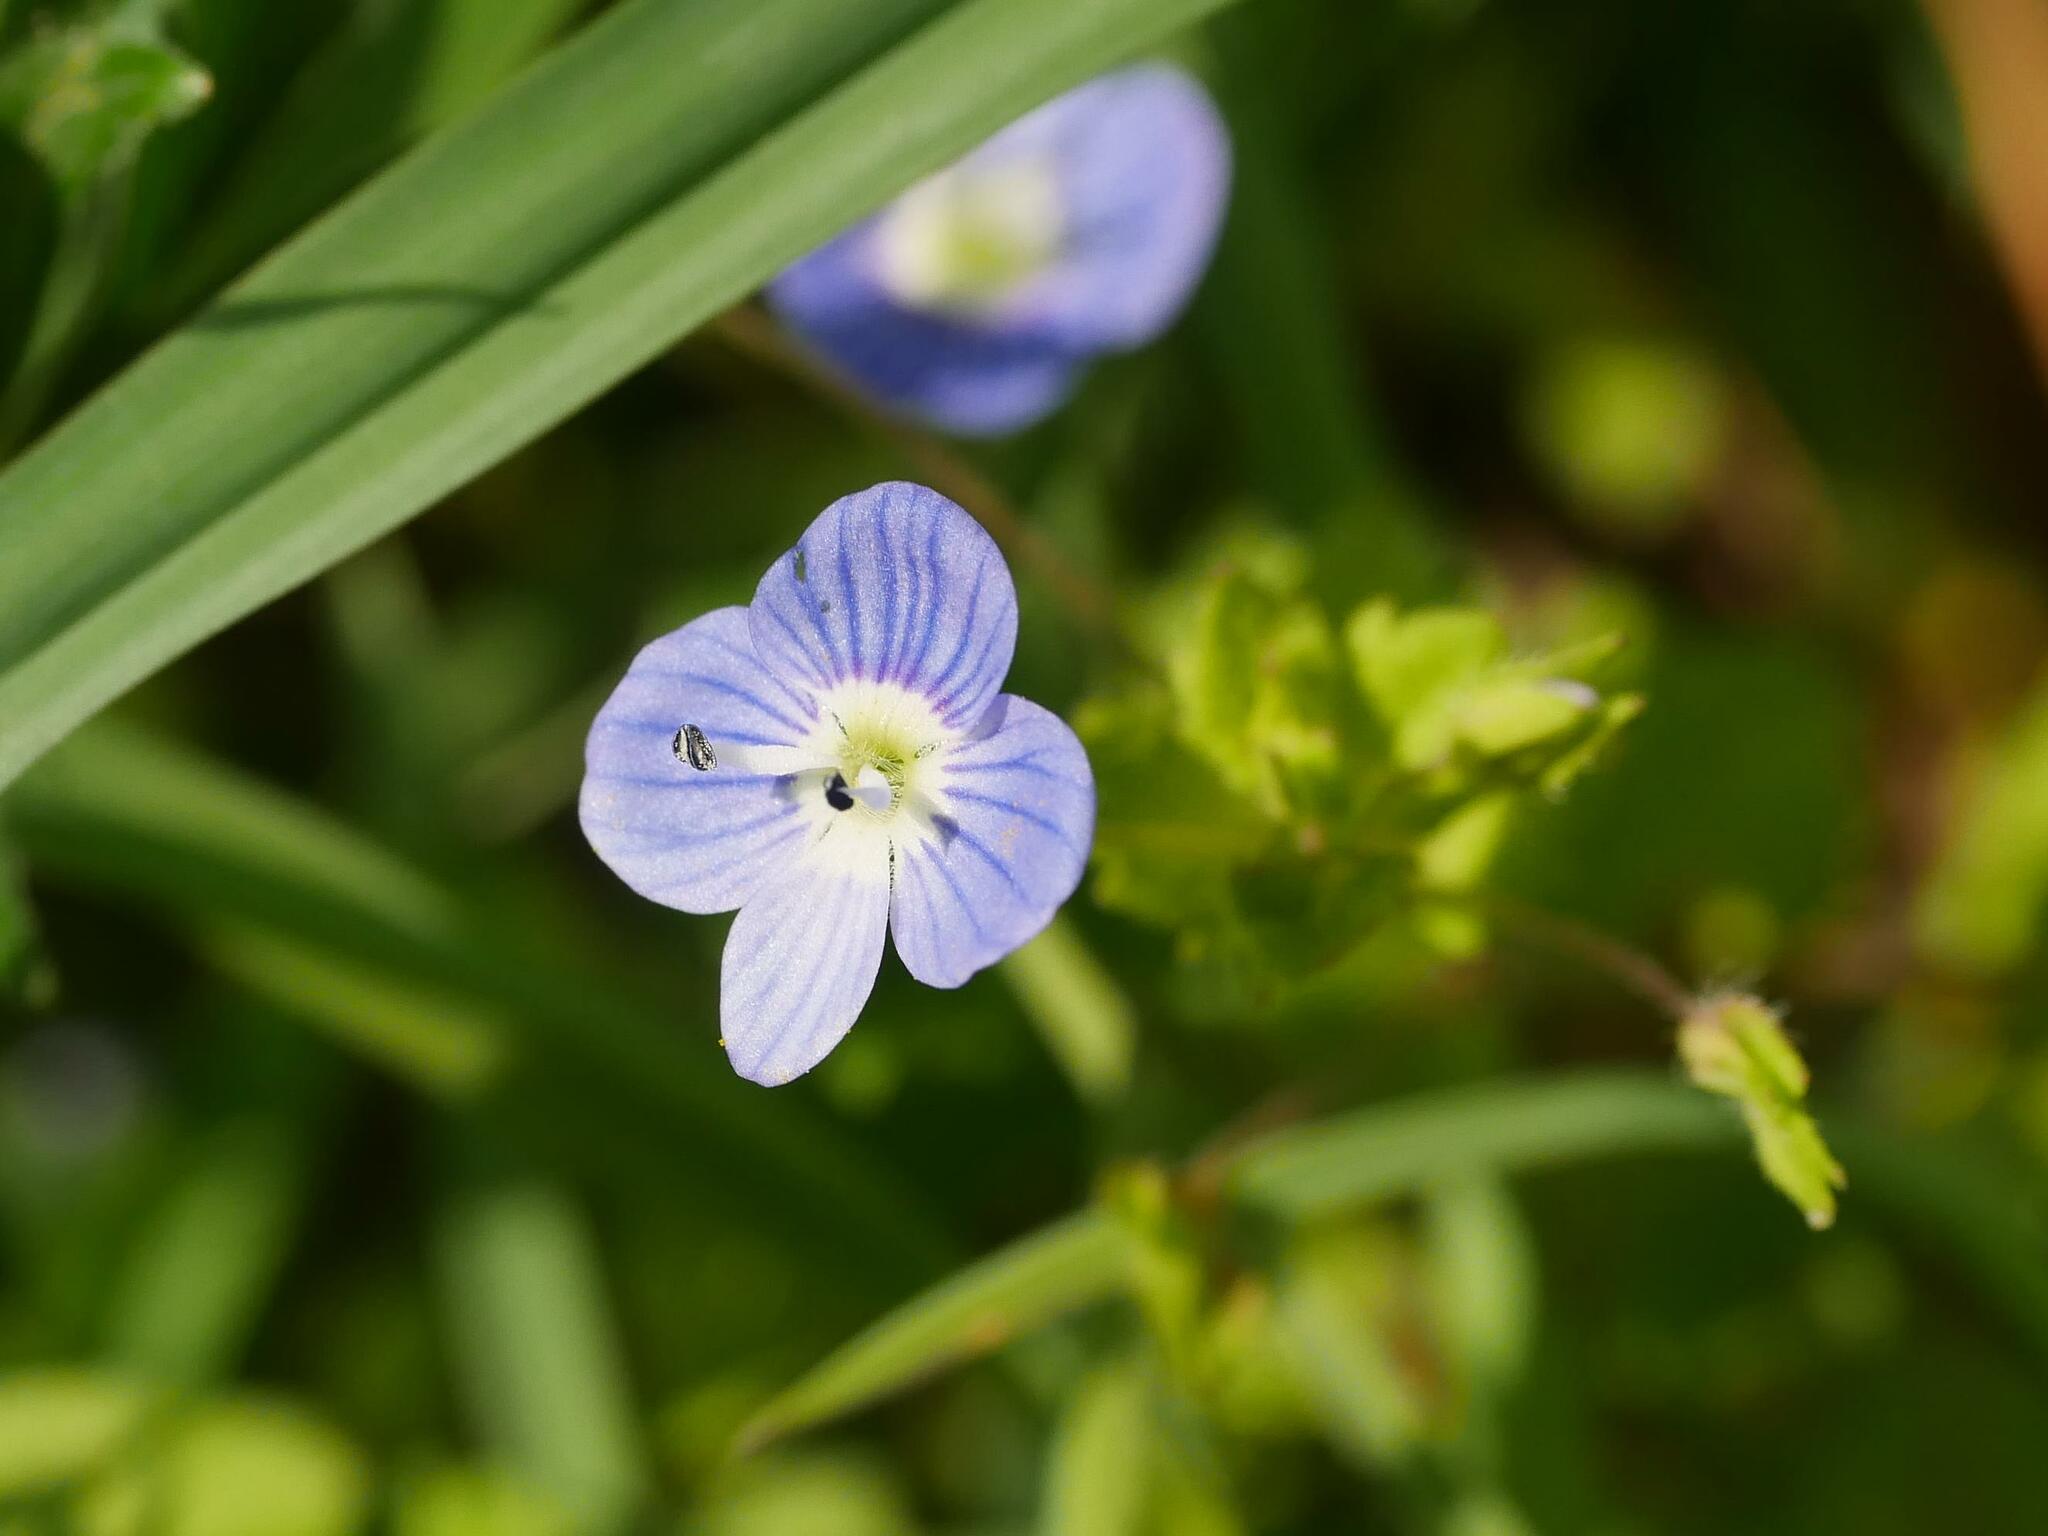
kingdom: Plantae
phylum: Tracheophyta
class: Magnoliopsida
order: Lamiales
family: Plantaginaceae
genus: Veronica
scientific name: Veronica persica
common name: Common field-speedwell
